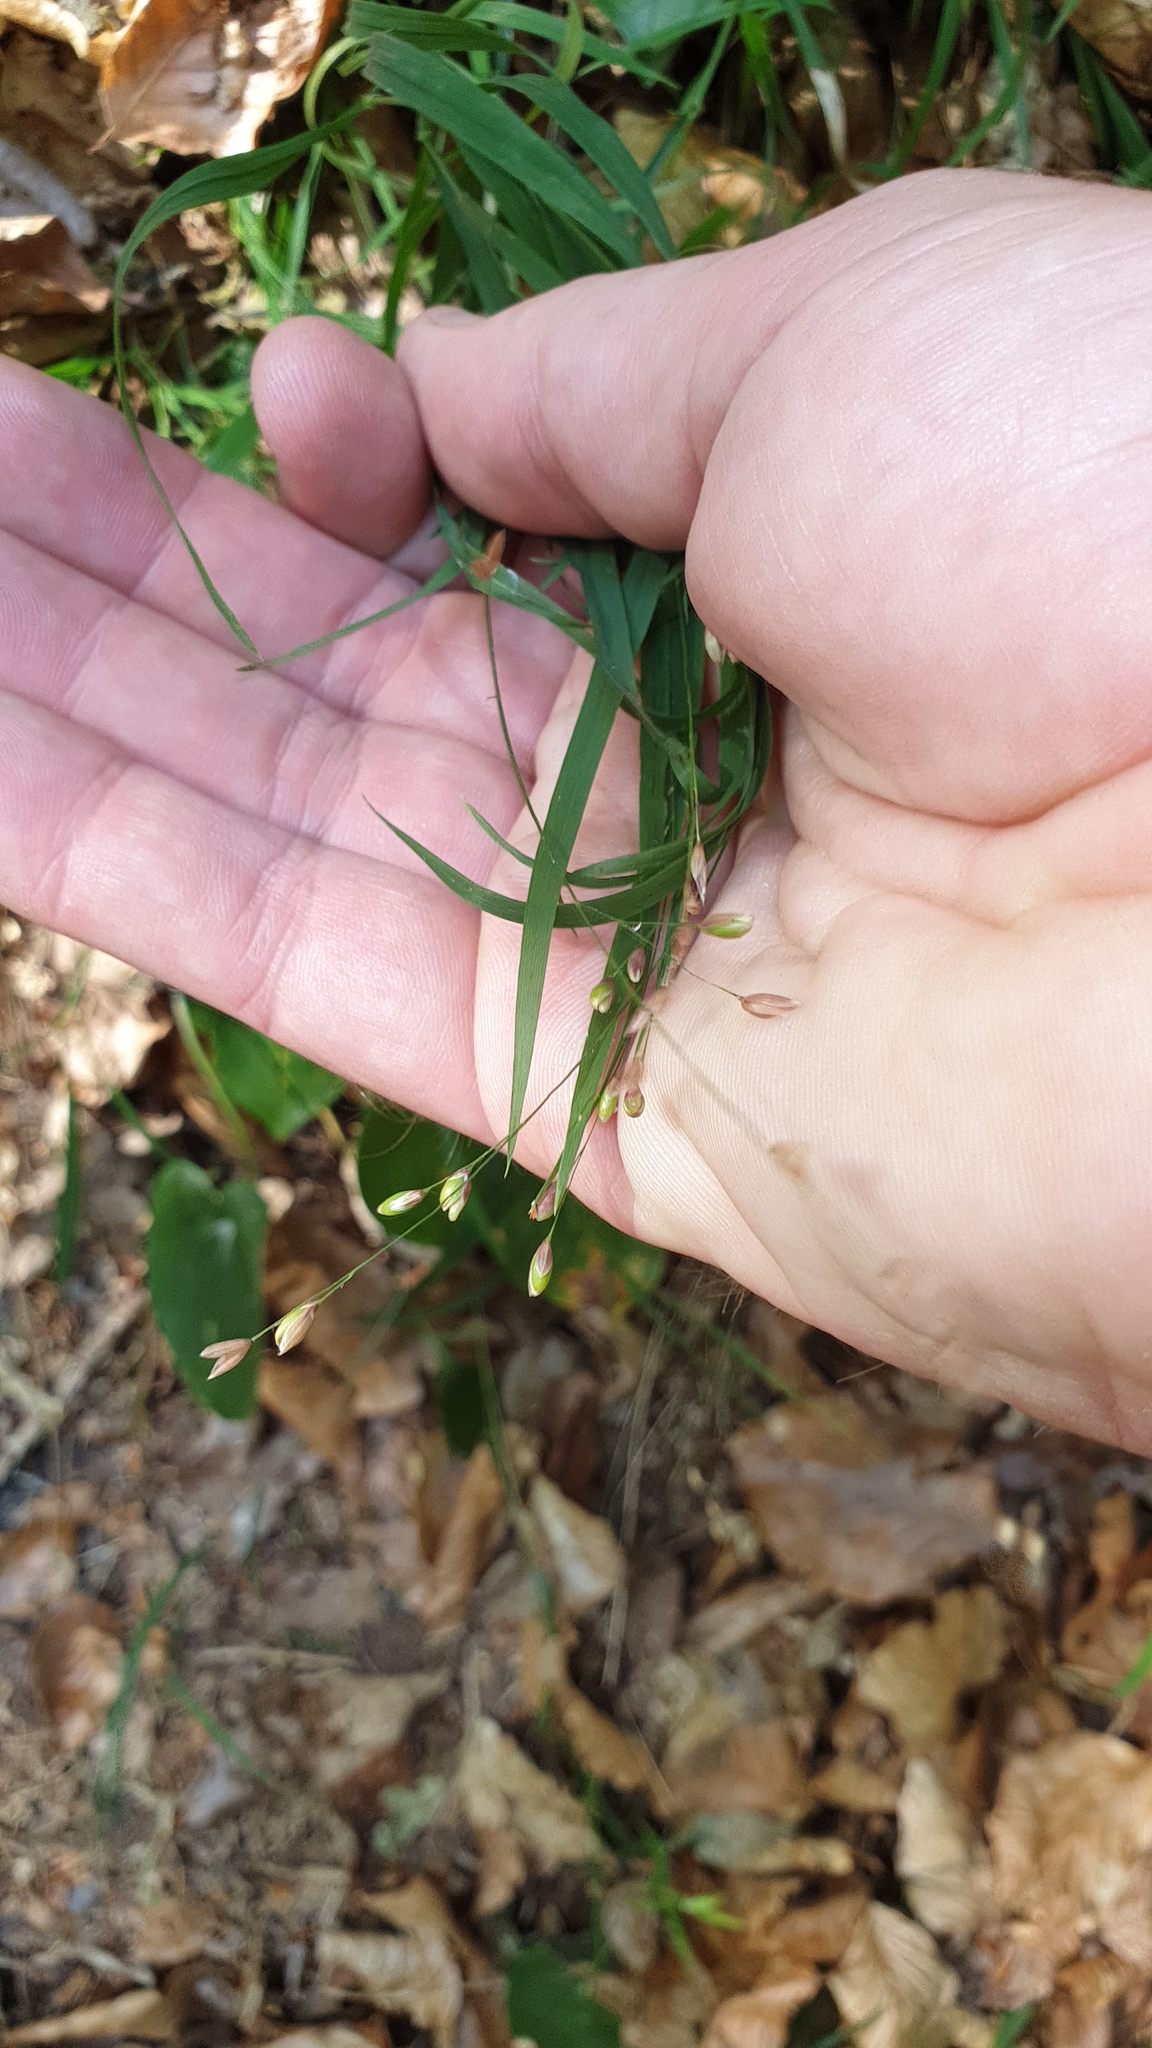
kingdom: Plantae
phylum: Tracheophyta
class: Liliopsida
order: Poales
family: Poaceae
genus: Melica
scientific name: Melica uniflora
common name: Wood melick
